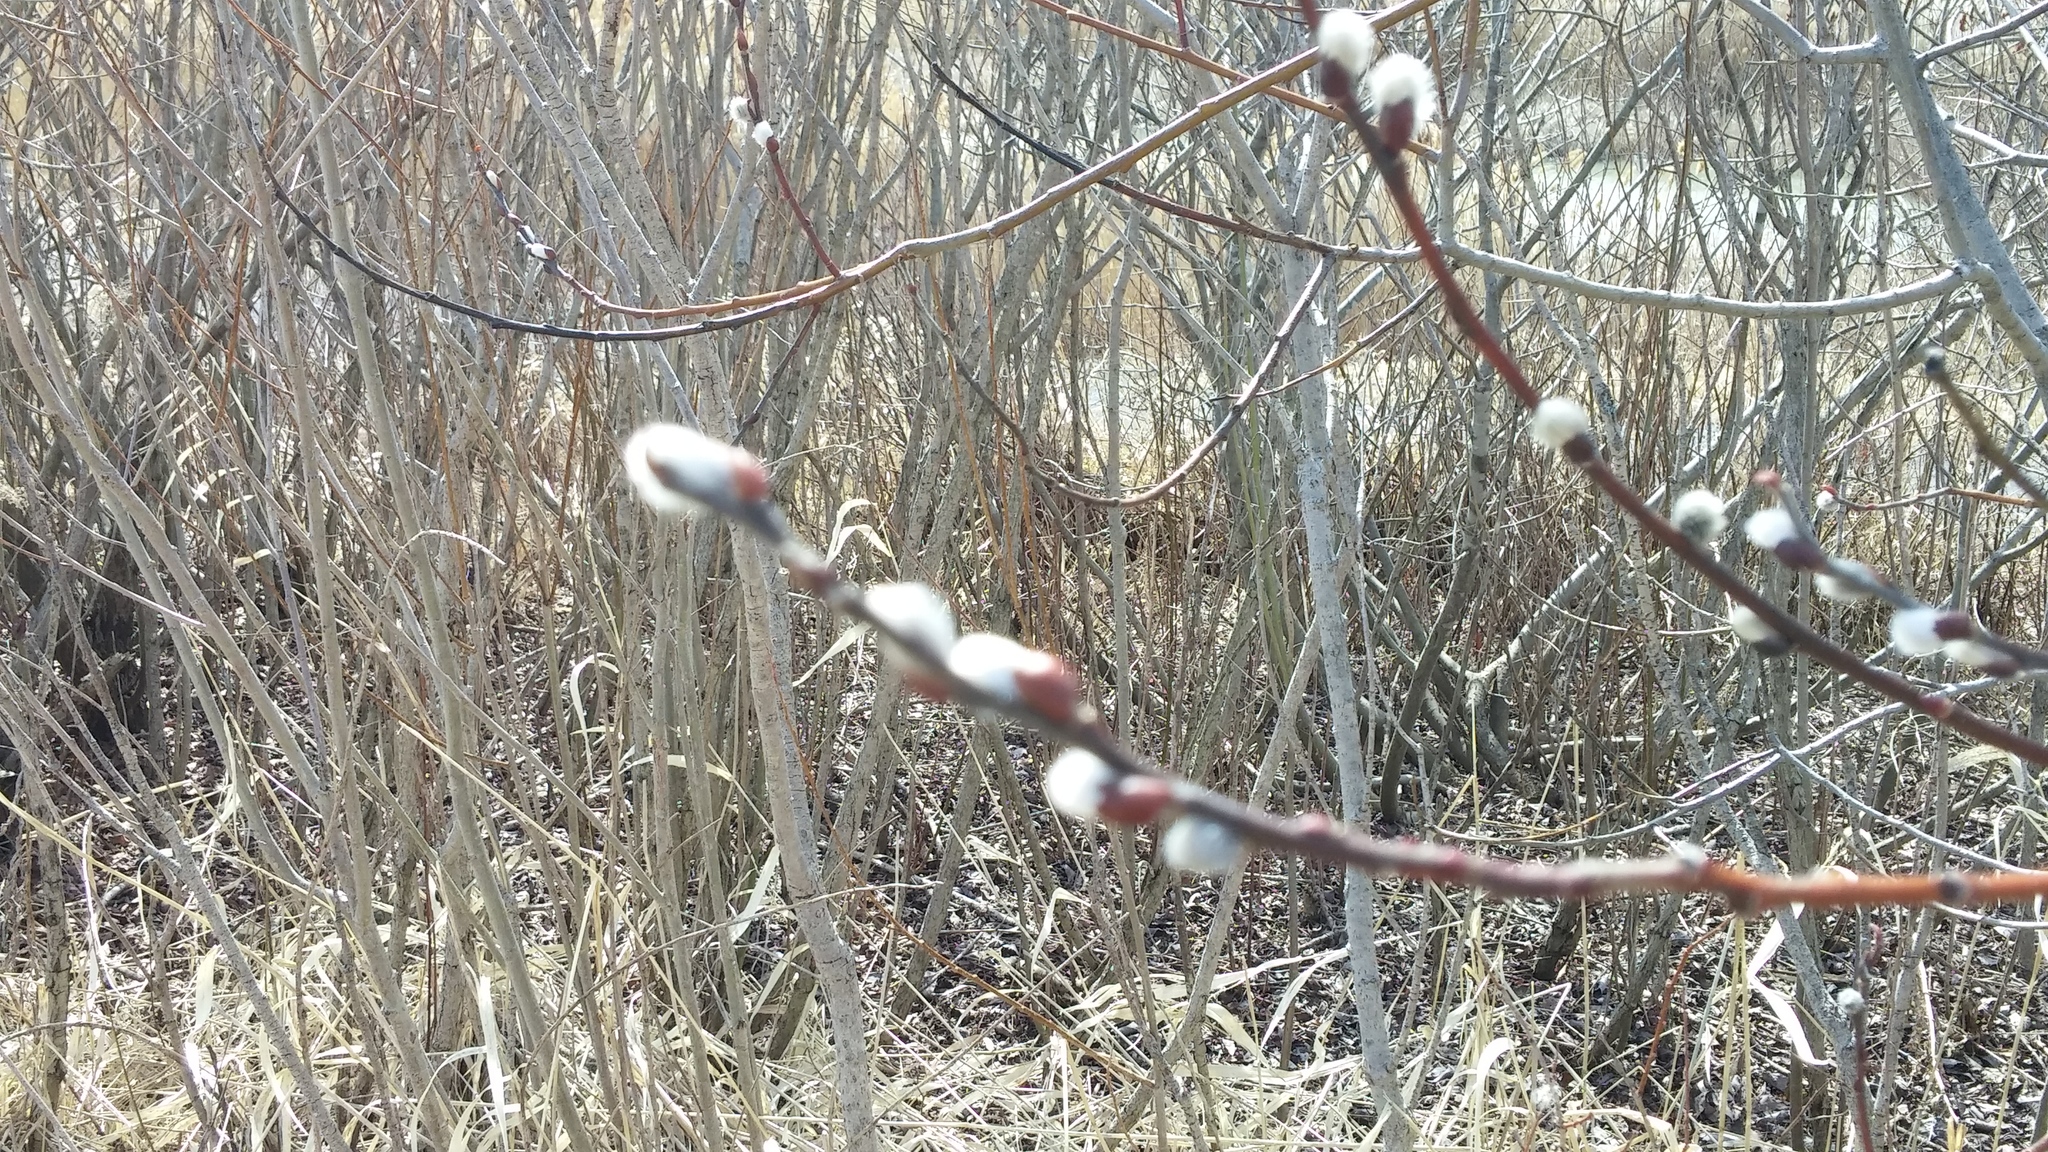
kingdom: Plantae
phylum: Tracheophyta
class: Magnoliopsida
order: Malpighiales
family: Salicaceae
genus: Salix
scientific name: Salix discolor
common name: Glaucous willow
